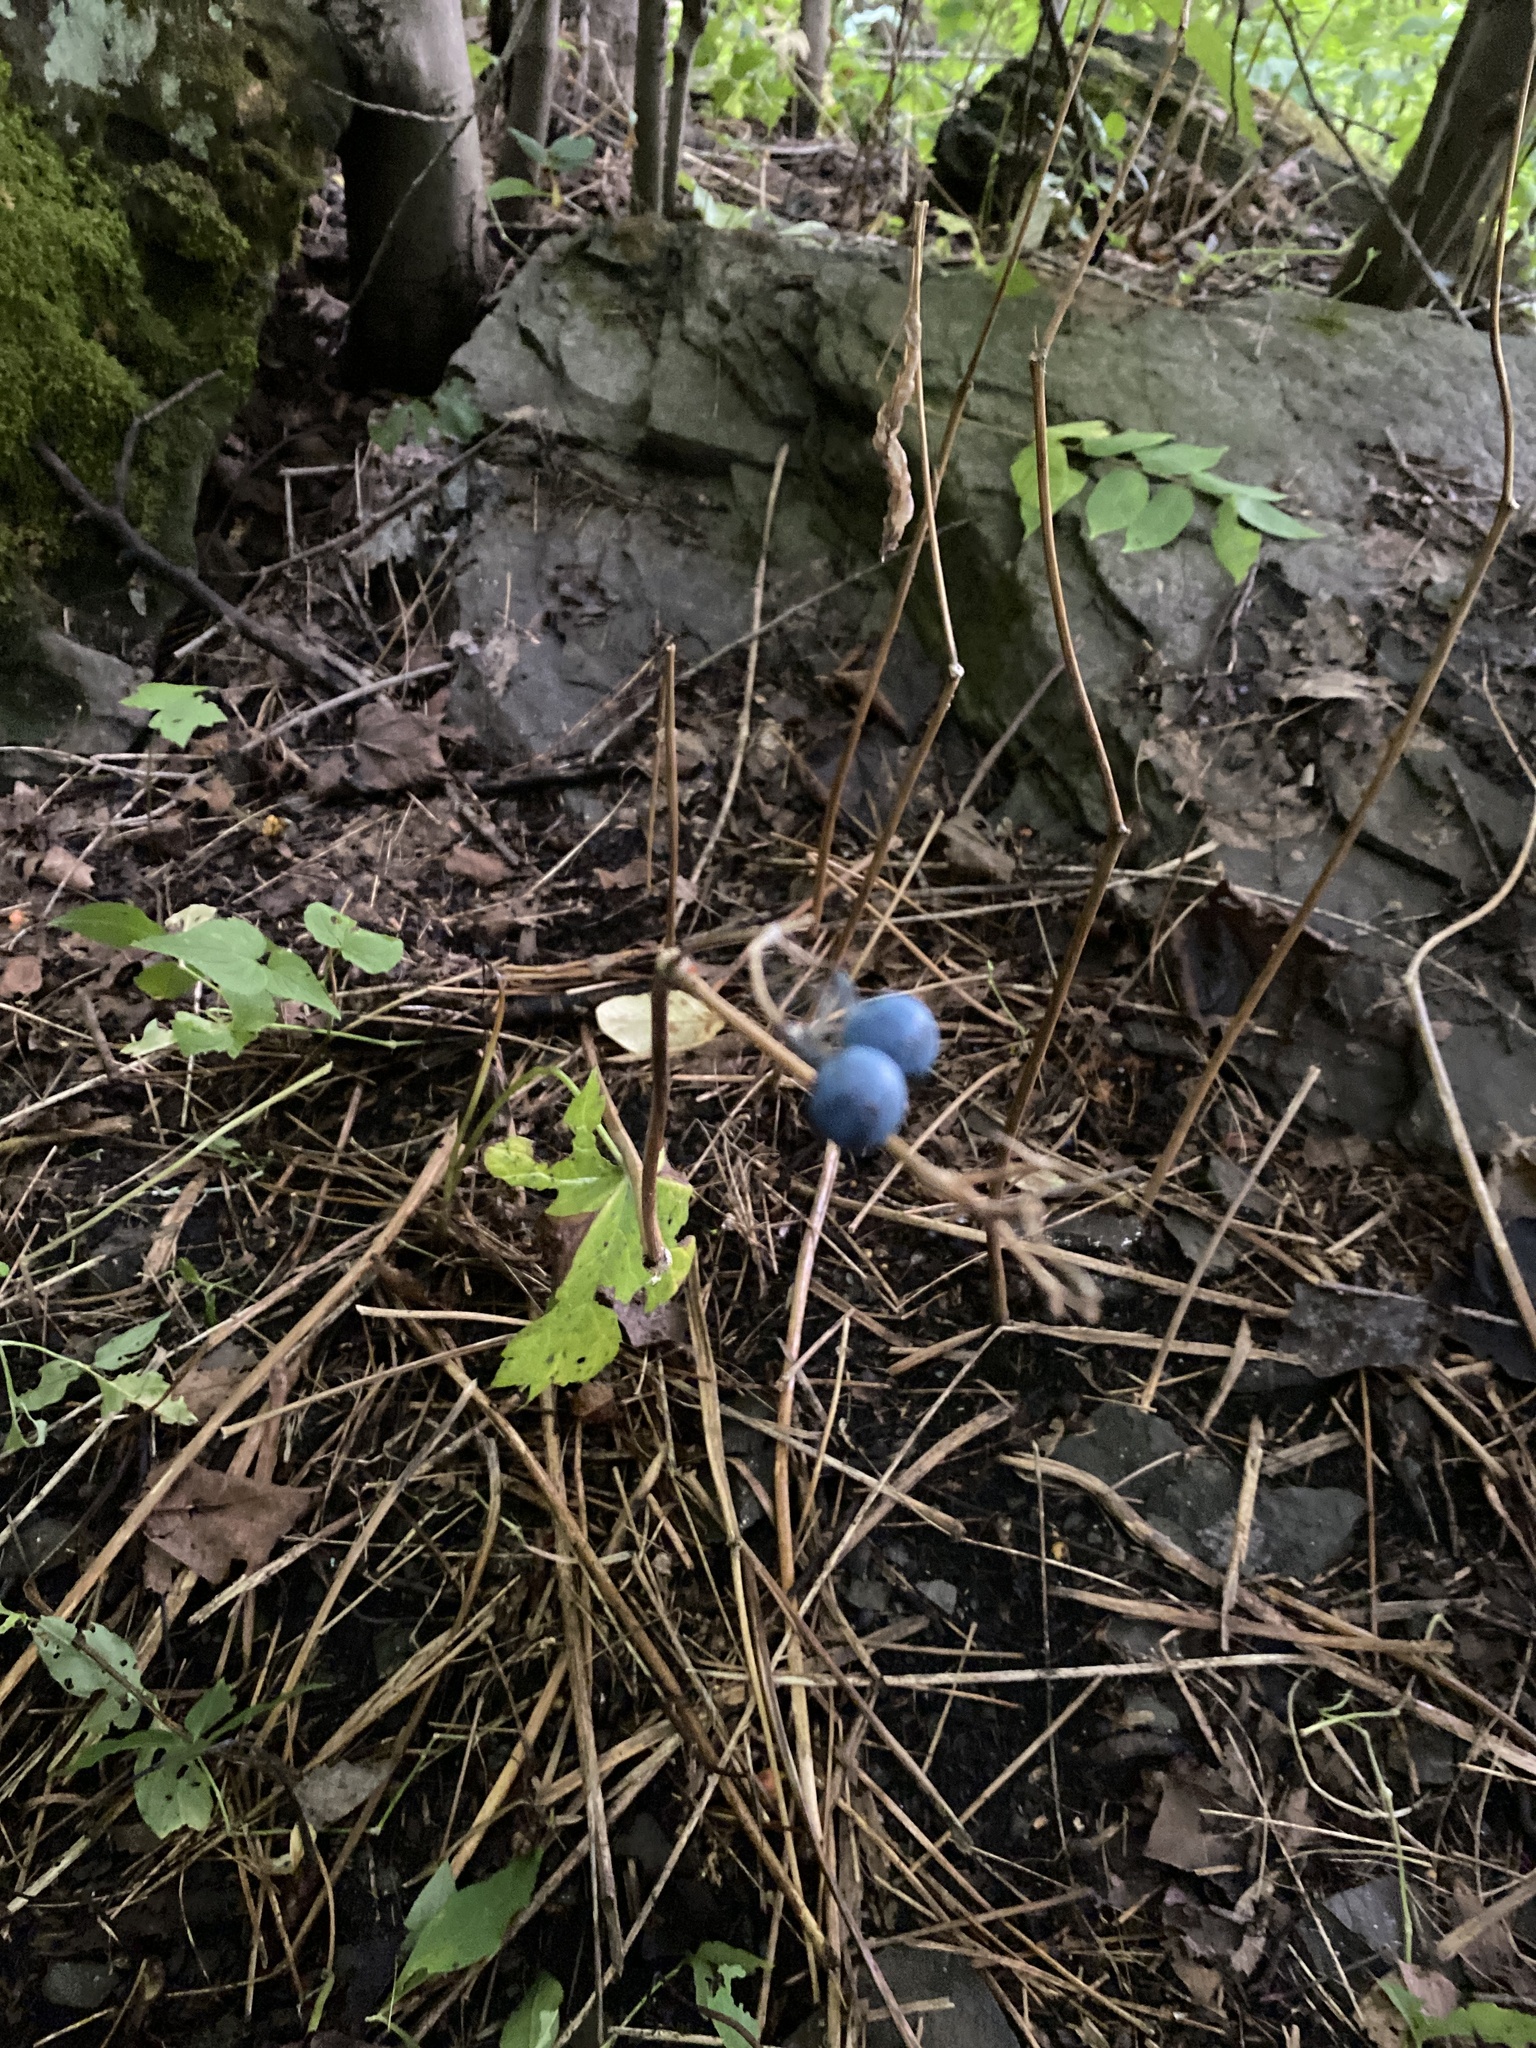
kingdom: Plantae
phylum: Tracheophyta
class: Magnoliopsida
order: Ranunculales
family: Berberidaceae
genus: Caulophyllum
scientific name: Caulophyllum thalictroides
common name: Blue cohosh
